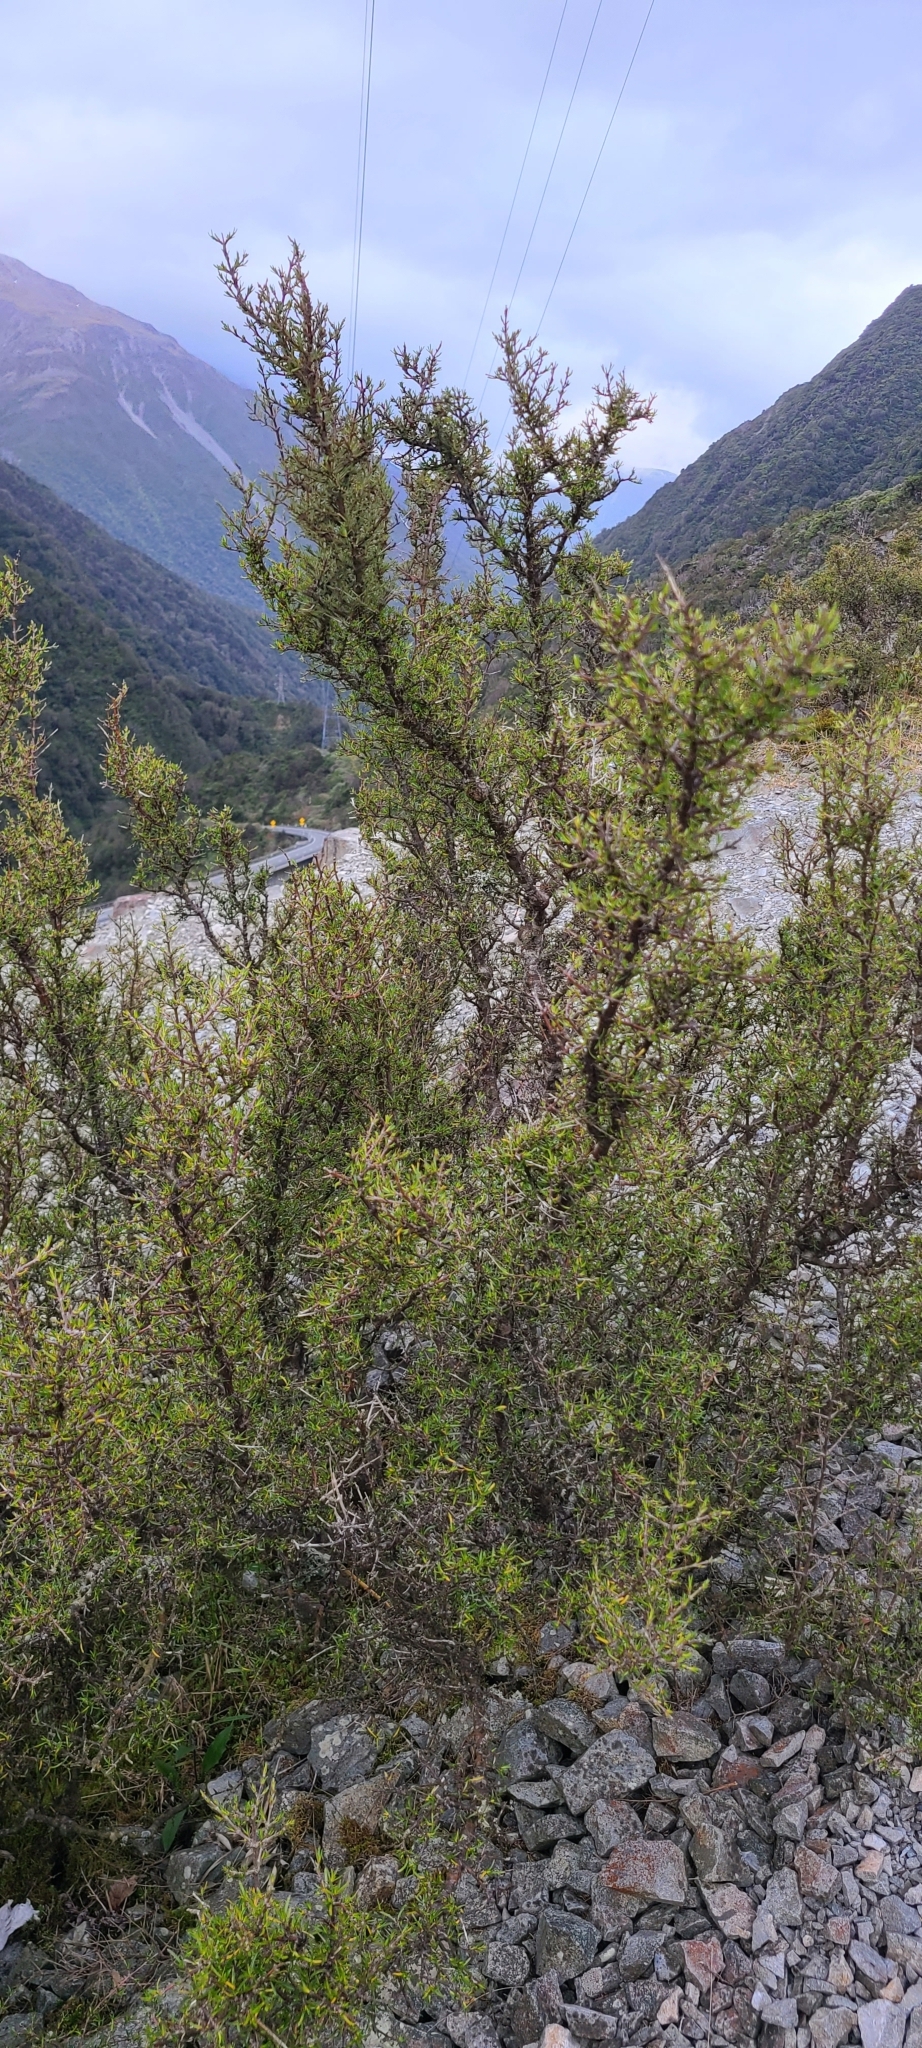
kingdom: Plantae
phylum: Tracheophyta
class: Magnoliopsida
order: Gentianales
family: Rubiaceae
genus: Coprosma
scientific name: Coprosma rugosa
